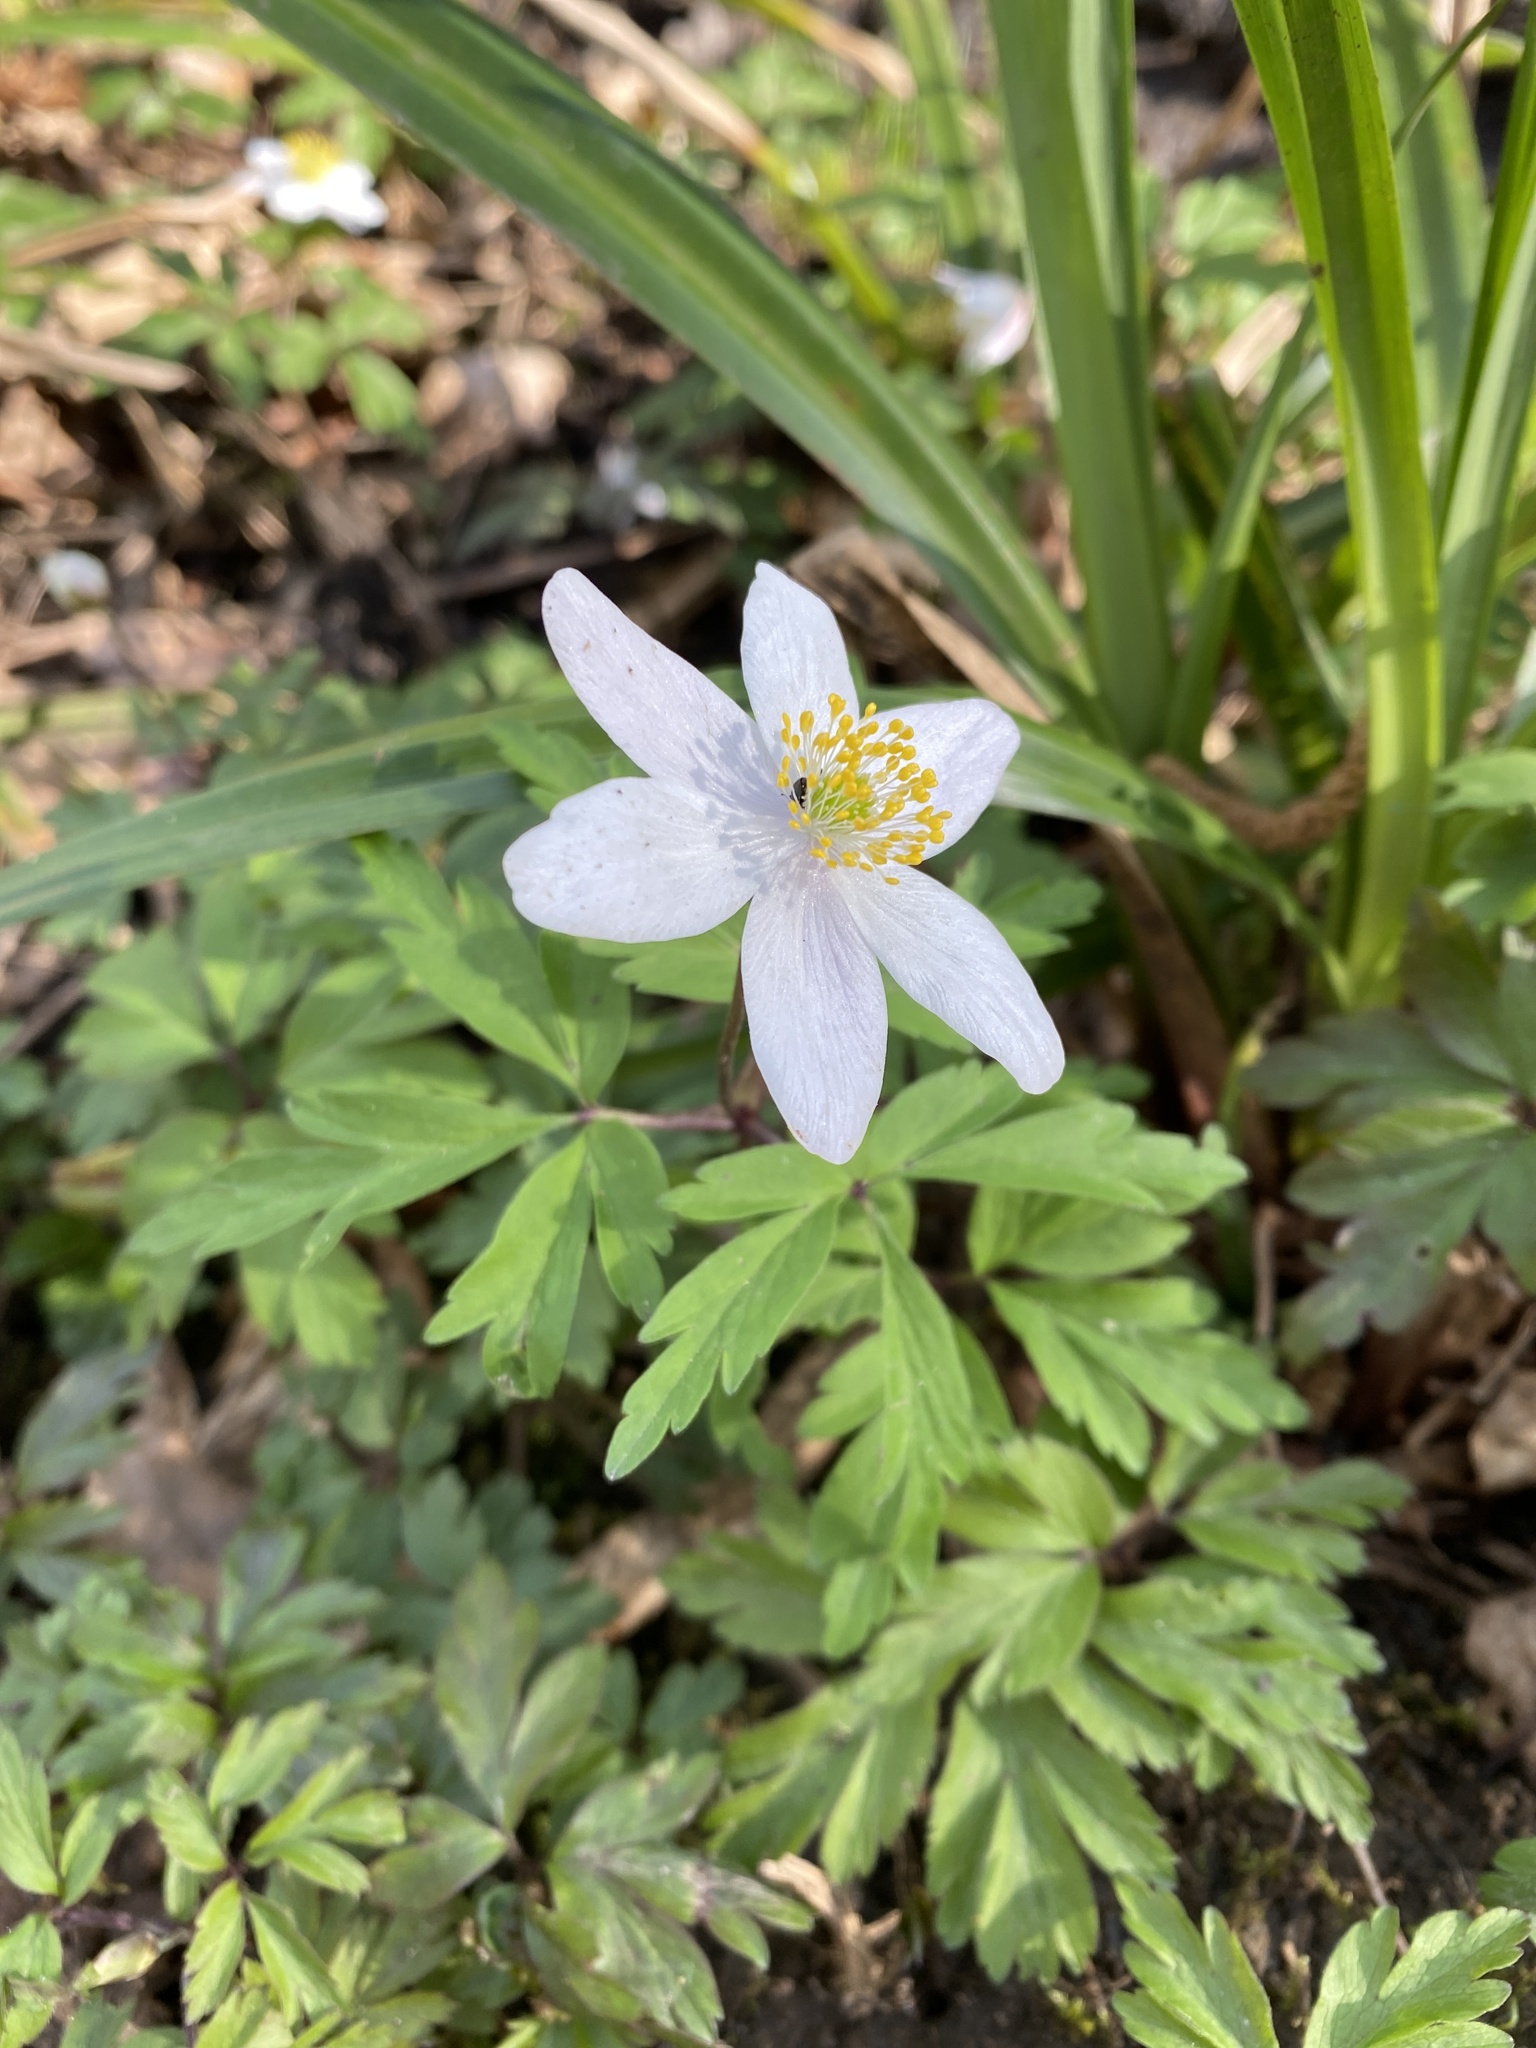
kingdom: Plantae
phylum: Tracheophyta
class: Magnoliopsida
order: Ranunculales
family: Ranunculaceae
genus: Anemone
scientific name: Anemone nemorosa
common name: Wood anemone
